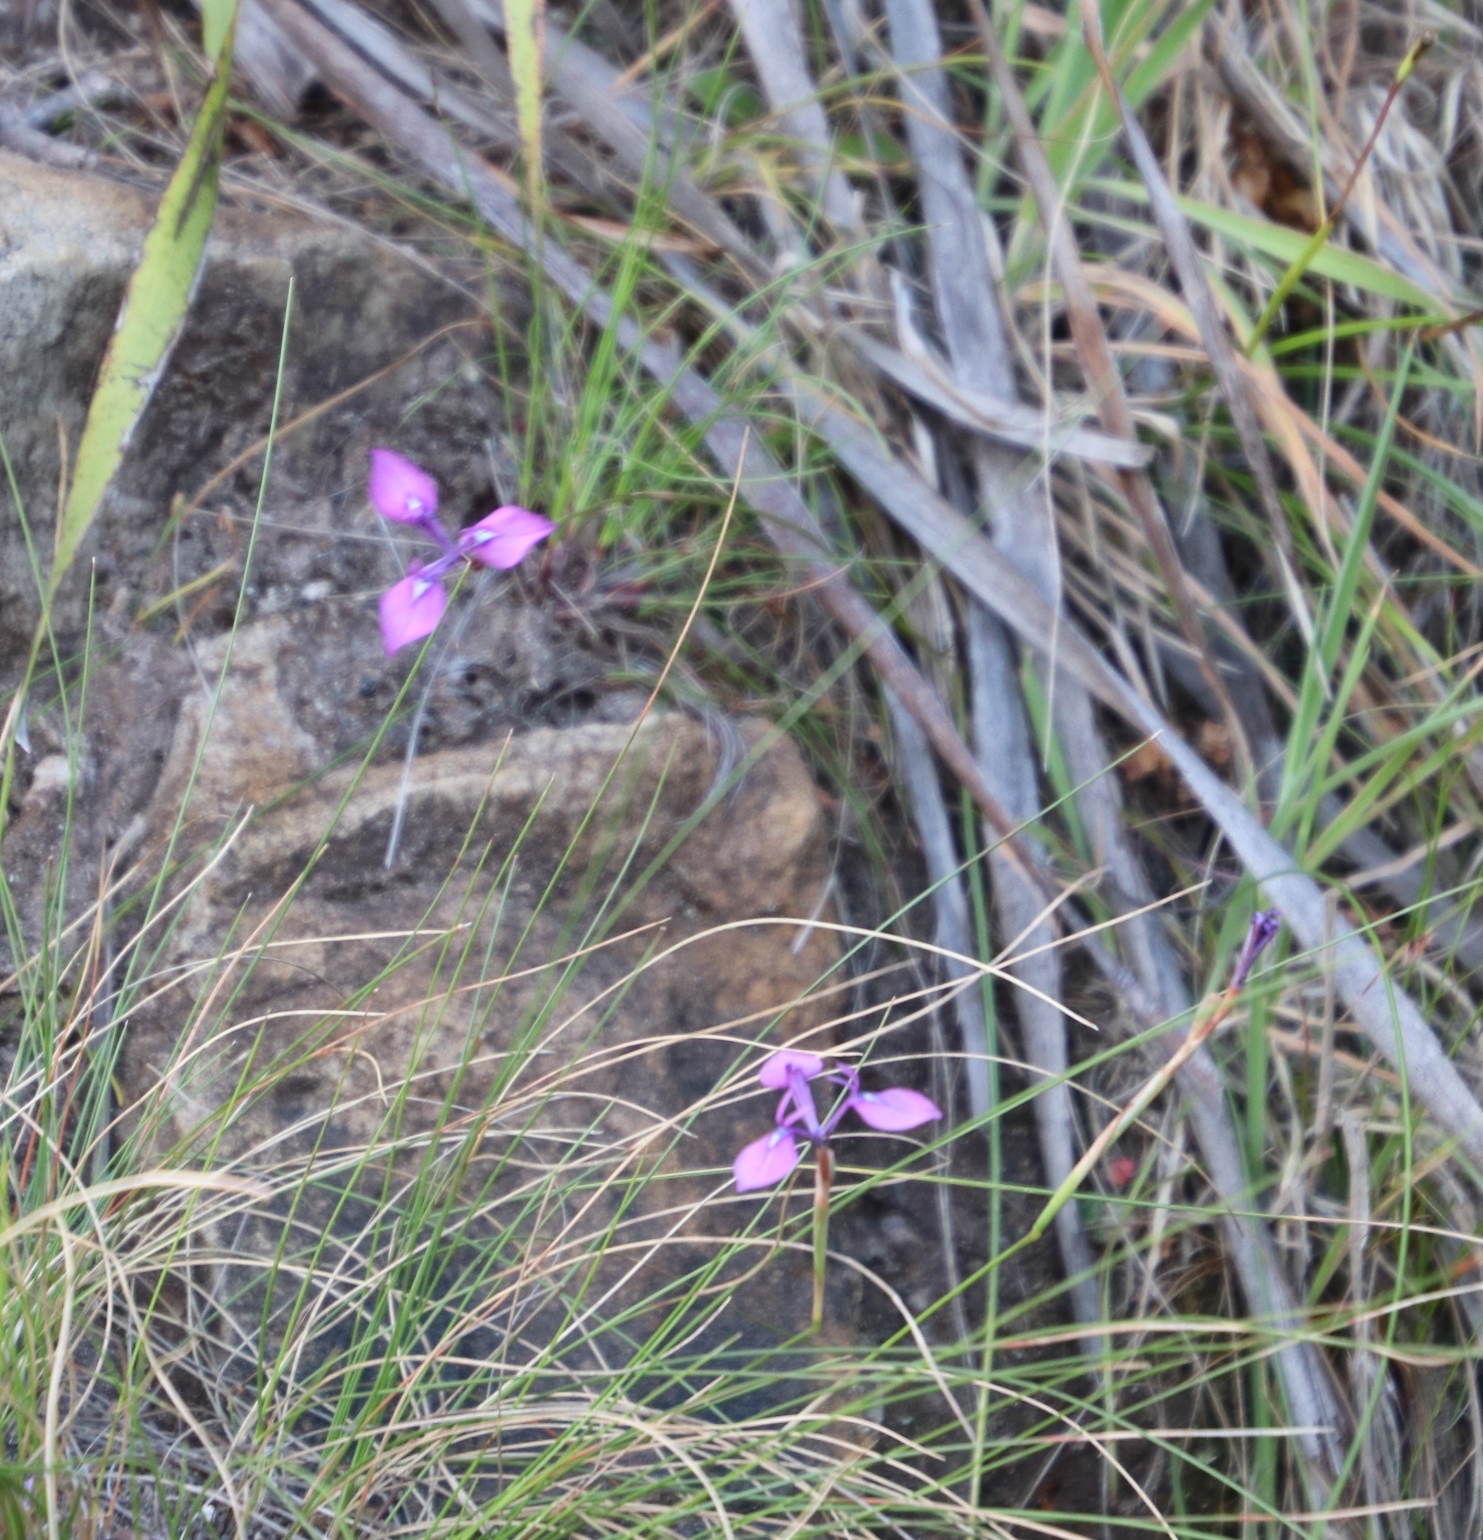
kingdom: Plantae
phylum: Tracheophyta
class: Liliopsida
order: Asparagales
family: Iridaceae
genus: Moraea
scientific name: Moraea tripetala
